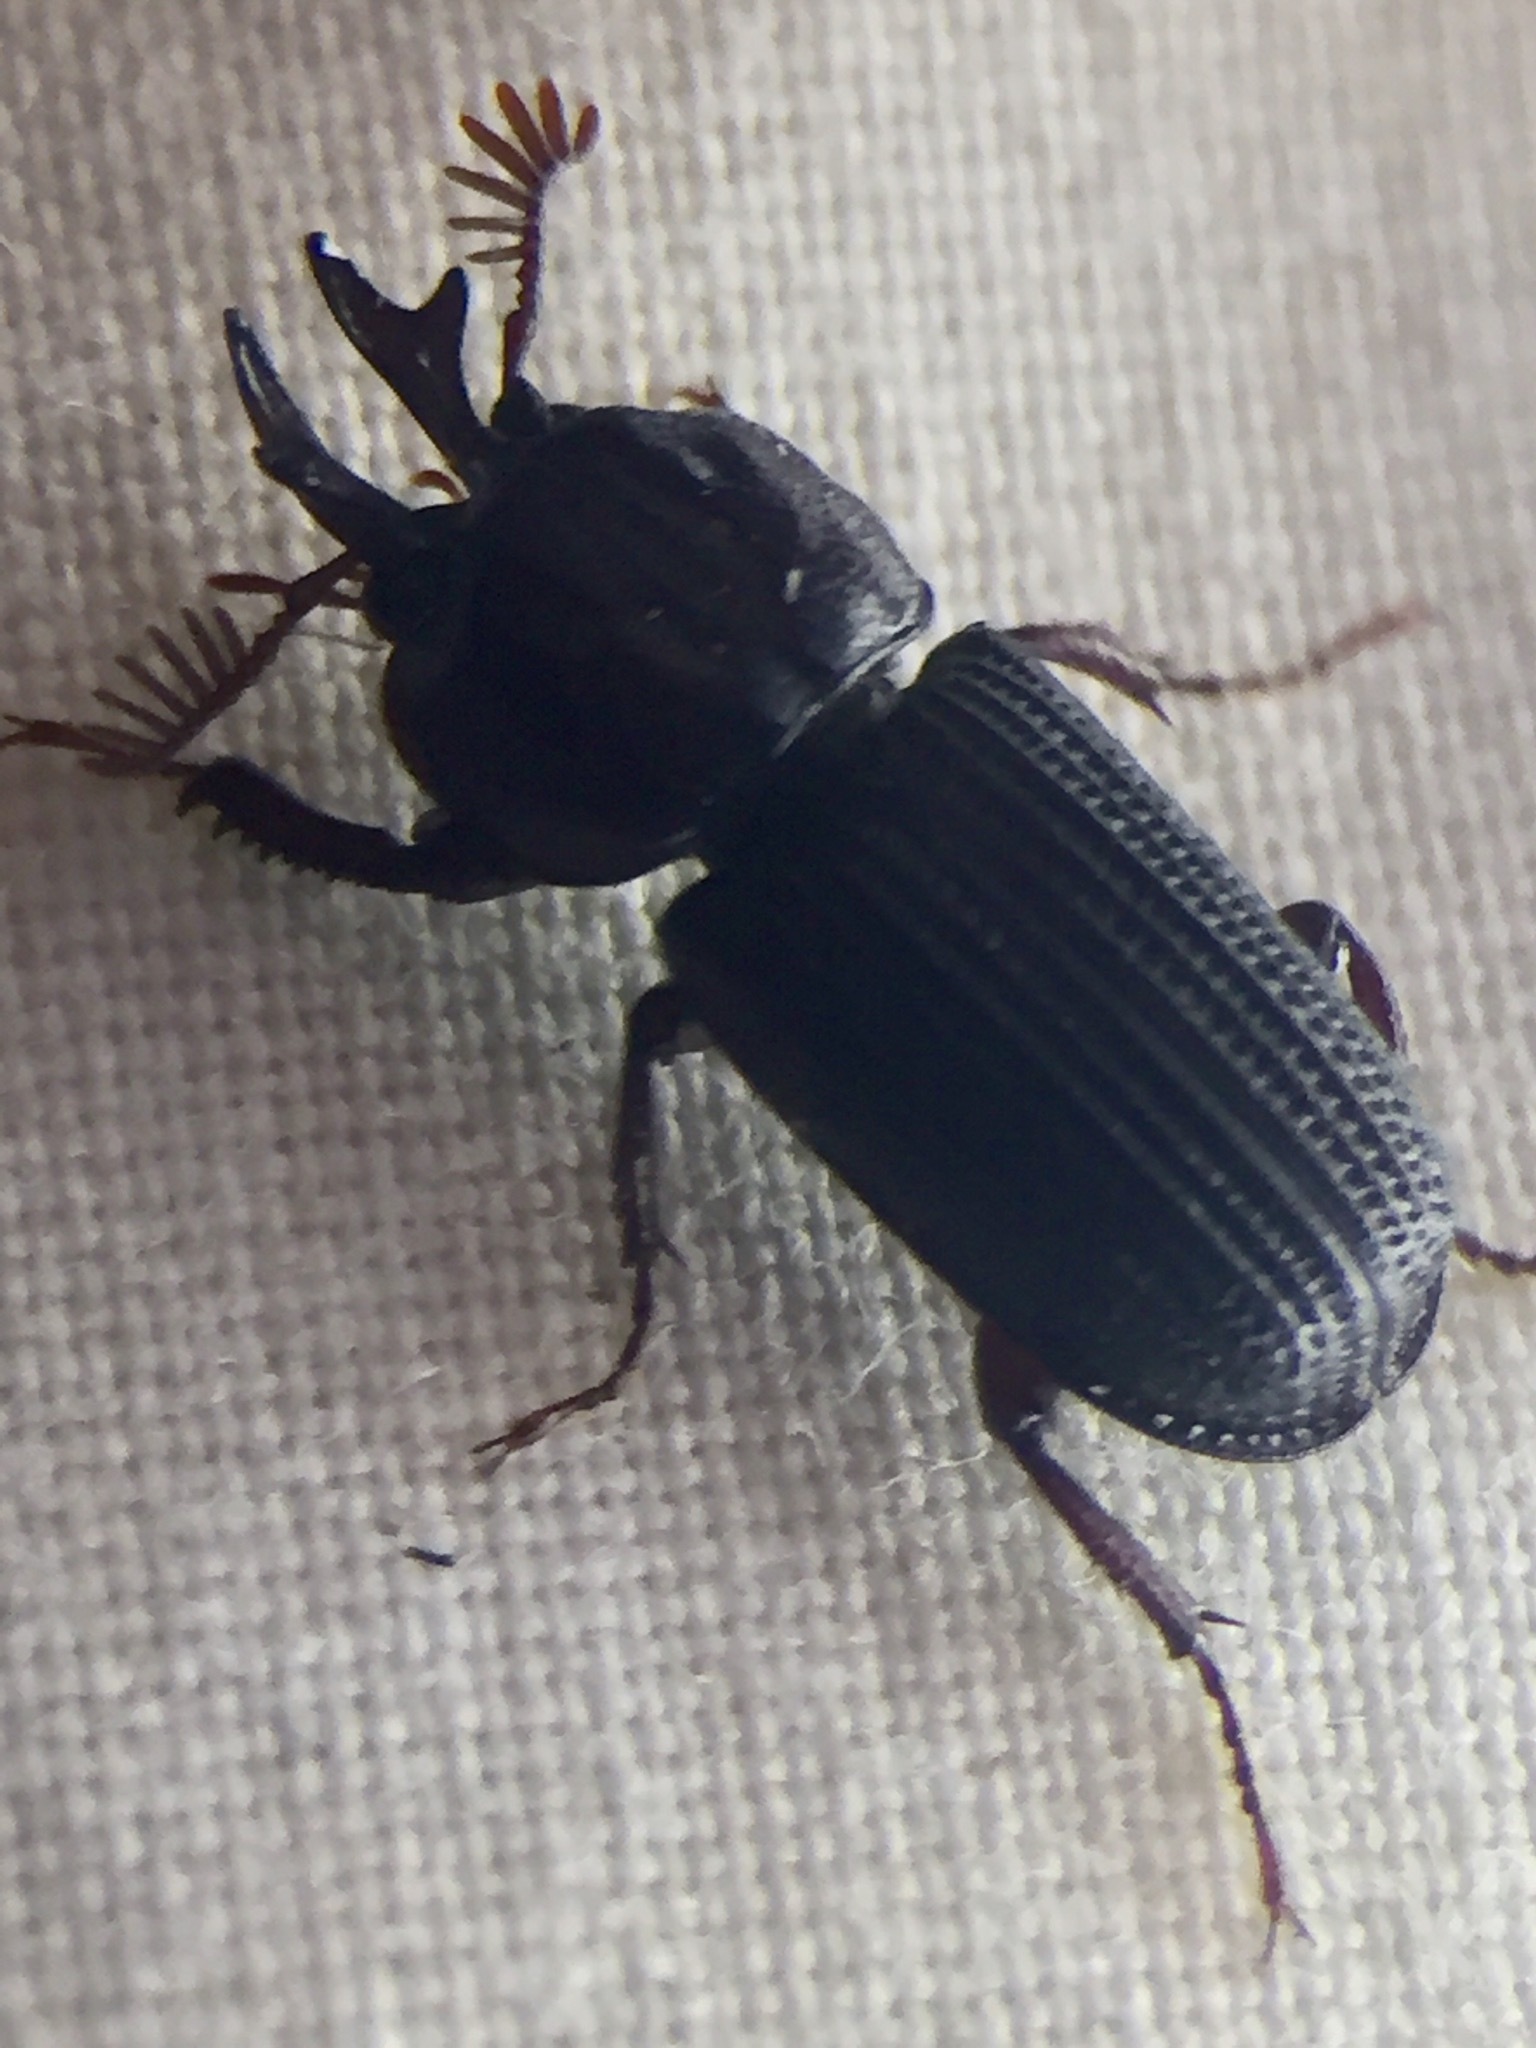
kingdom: Animalia
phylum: Arthropoda
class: Insecta
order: Coleoptera
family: Lucanidae
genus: Syndesus
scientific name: Syndesus cornutus
